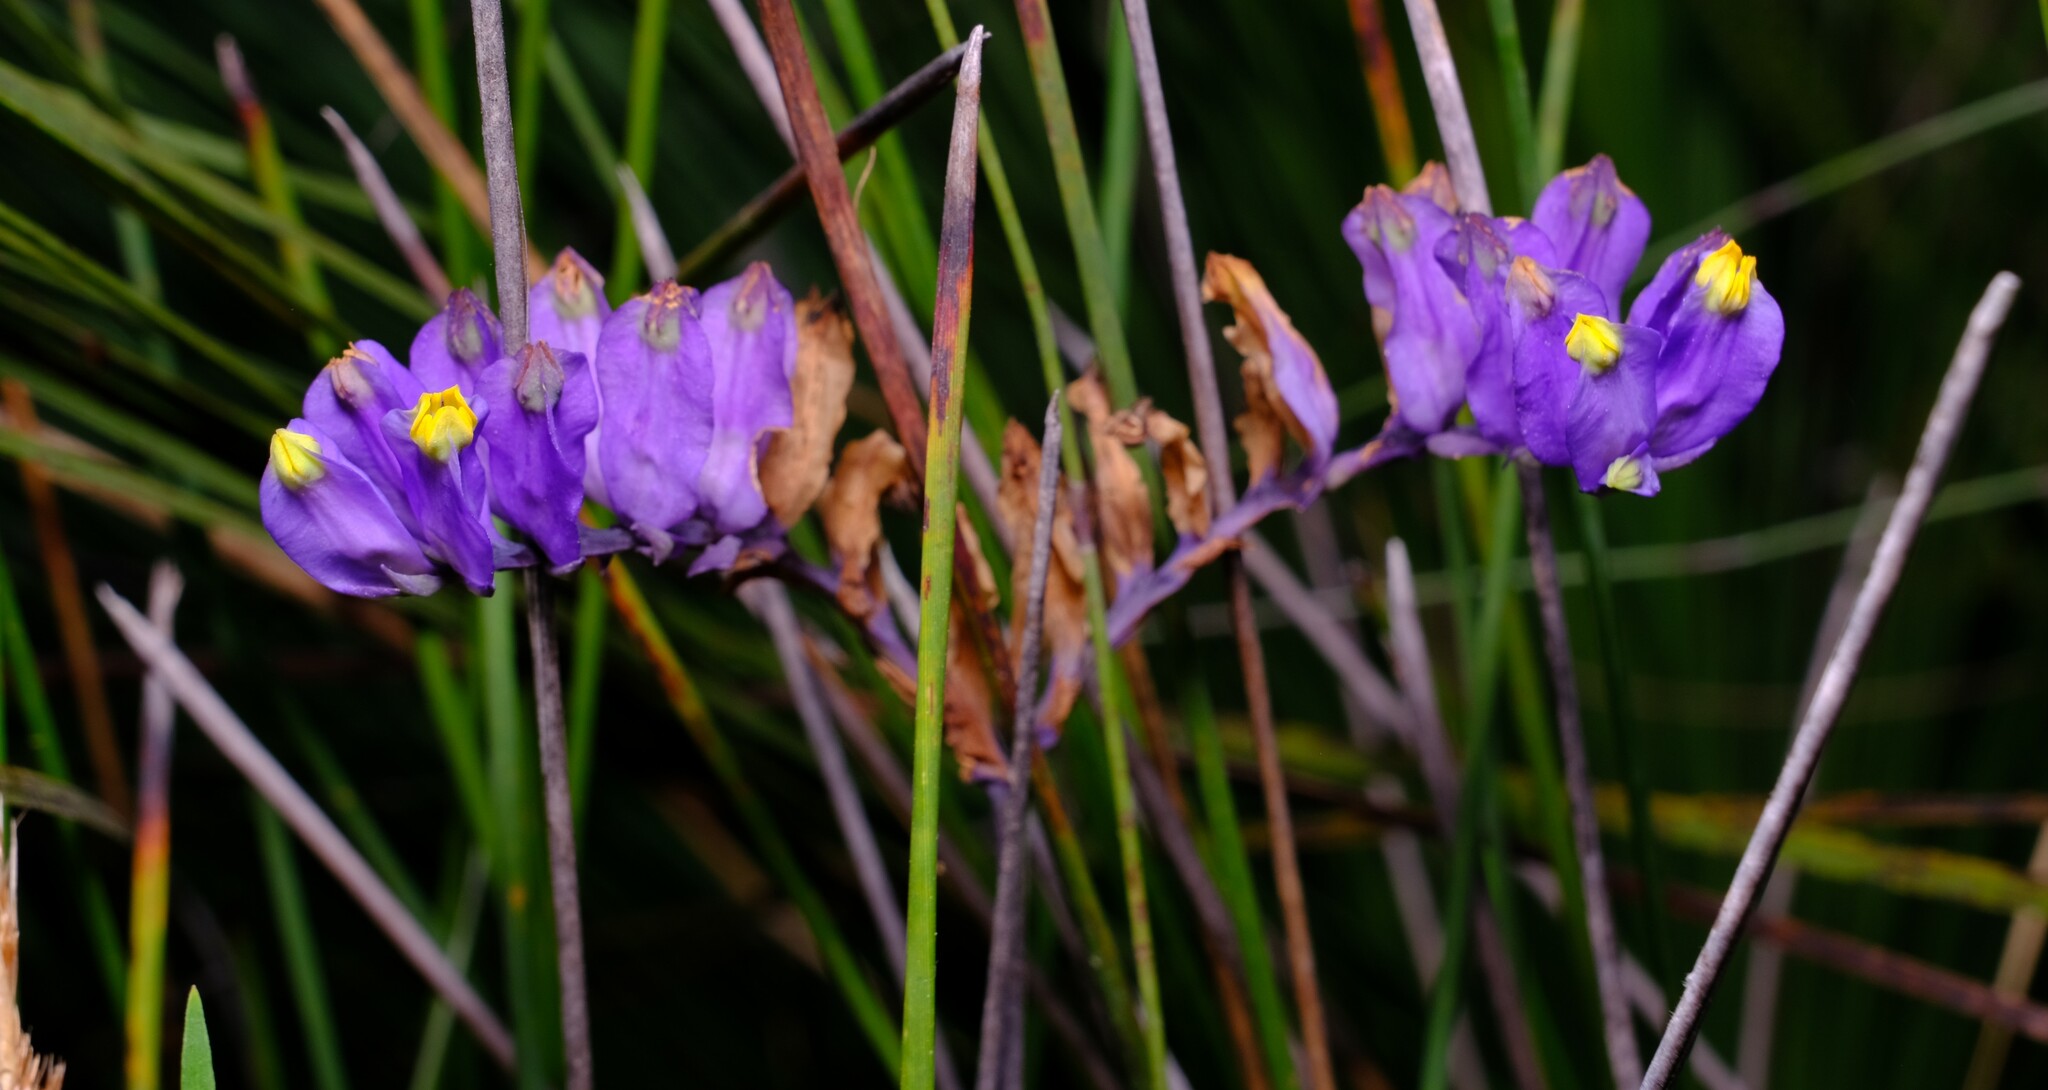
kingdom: Plantae
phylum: Tracheophyta
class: Liliopsida
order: Dioscoreales
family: Burmanniaceae
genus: Burmannia
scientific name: Burmannia disticha
